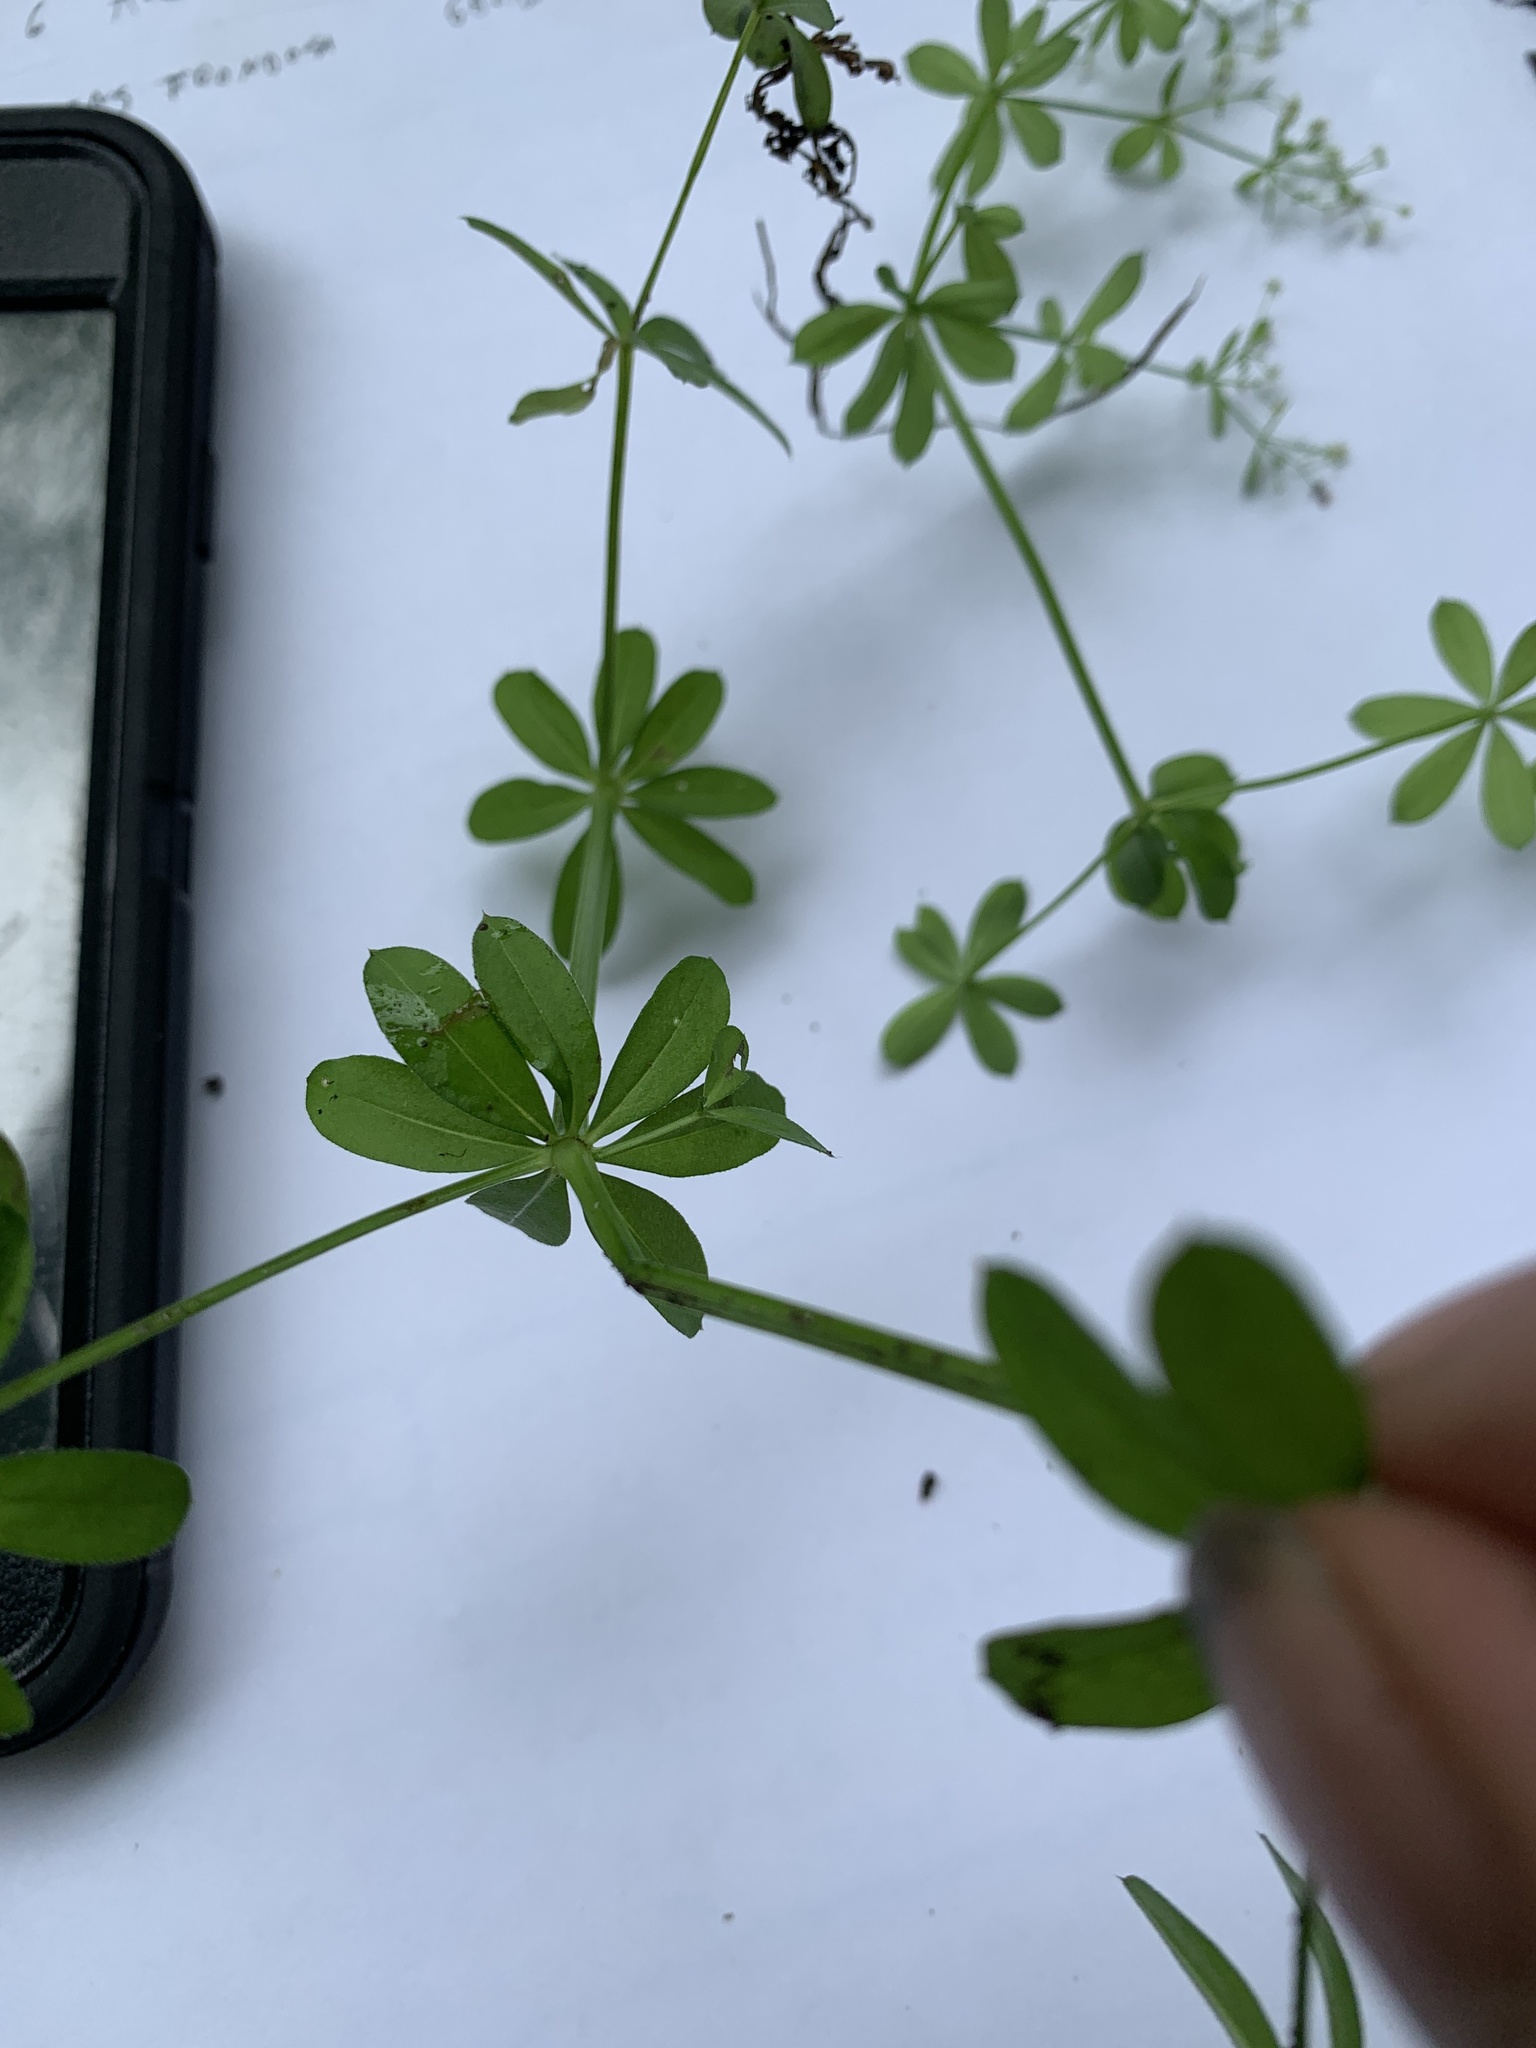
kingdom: Plantae
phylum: Tracheophyta
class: Magnoliopsida
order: Gentianales
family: Rubiaceae
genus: Galium
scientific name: Galium mollugo
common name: Hedge bedstraw
